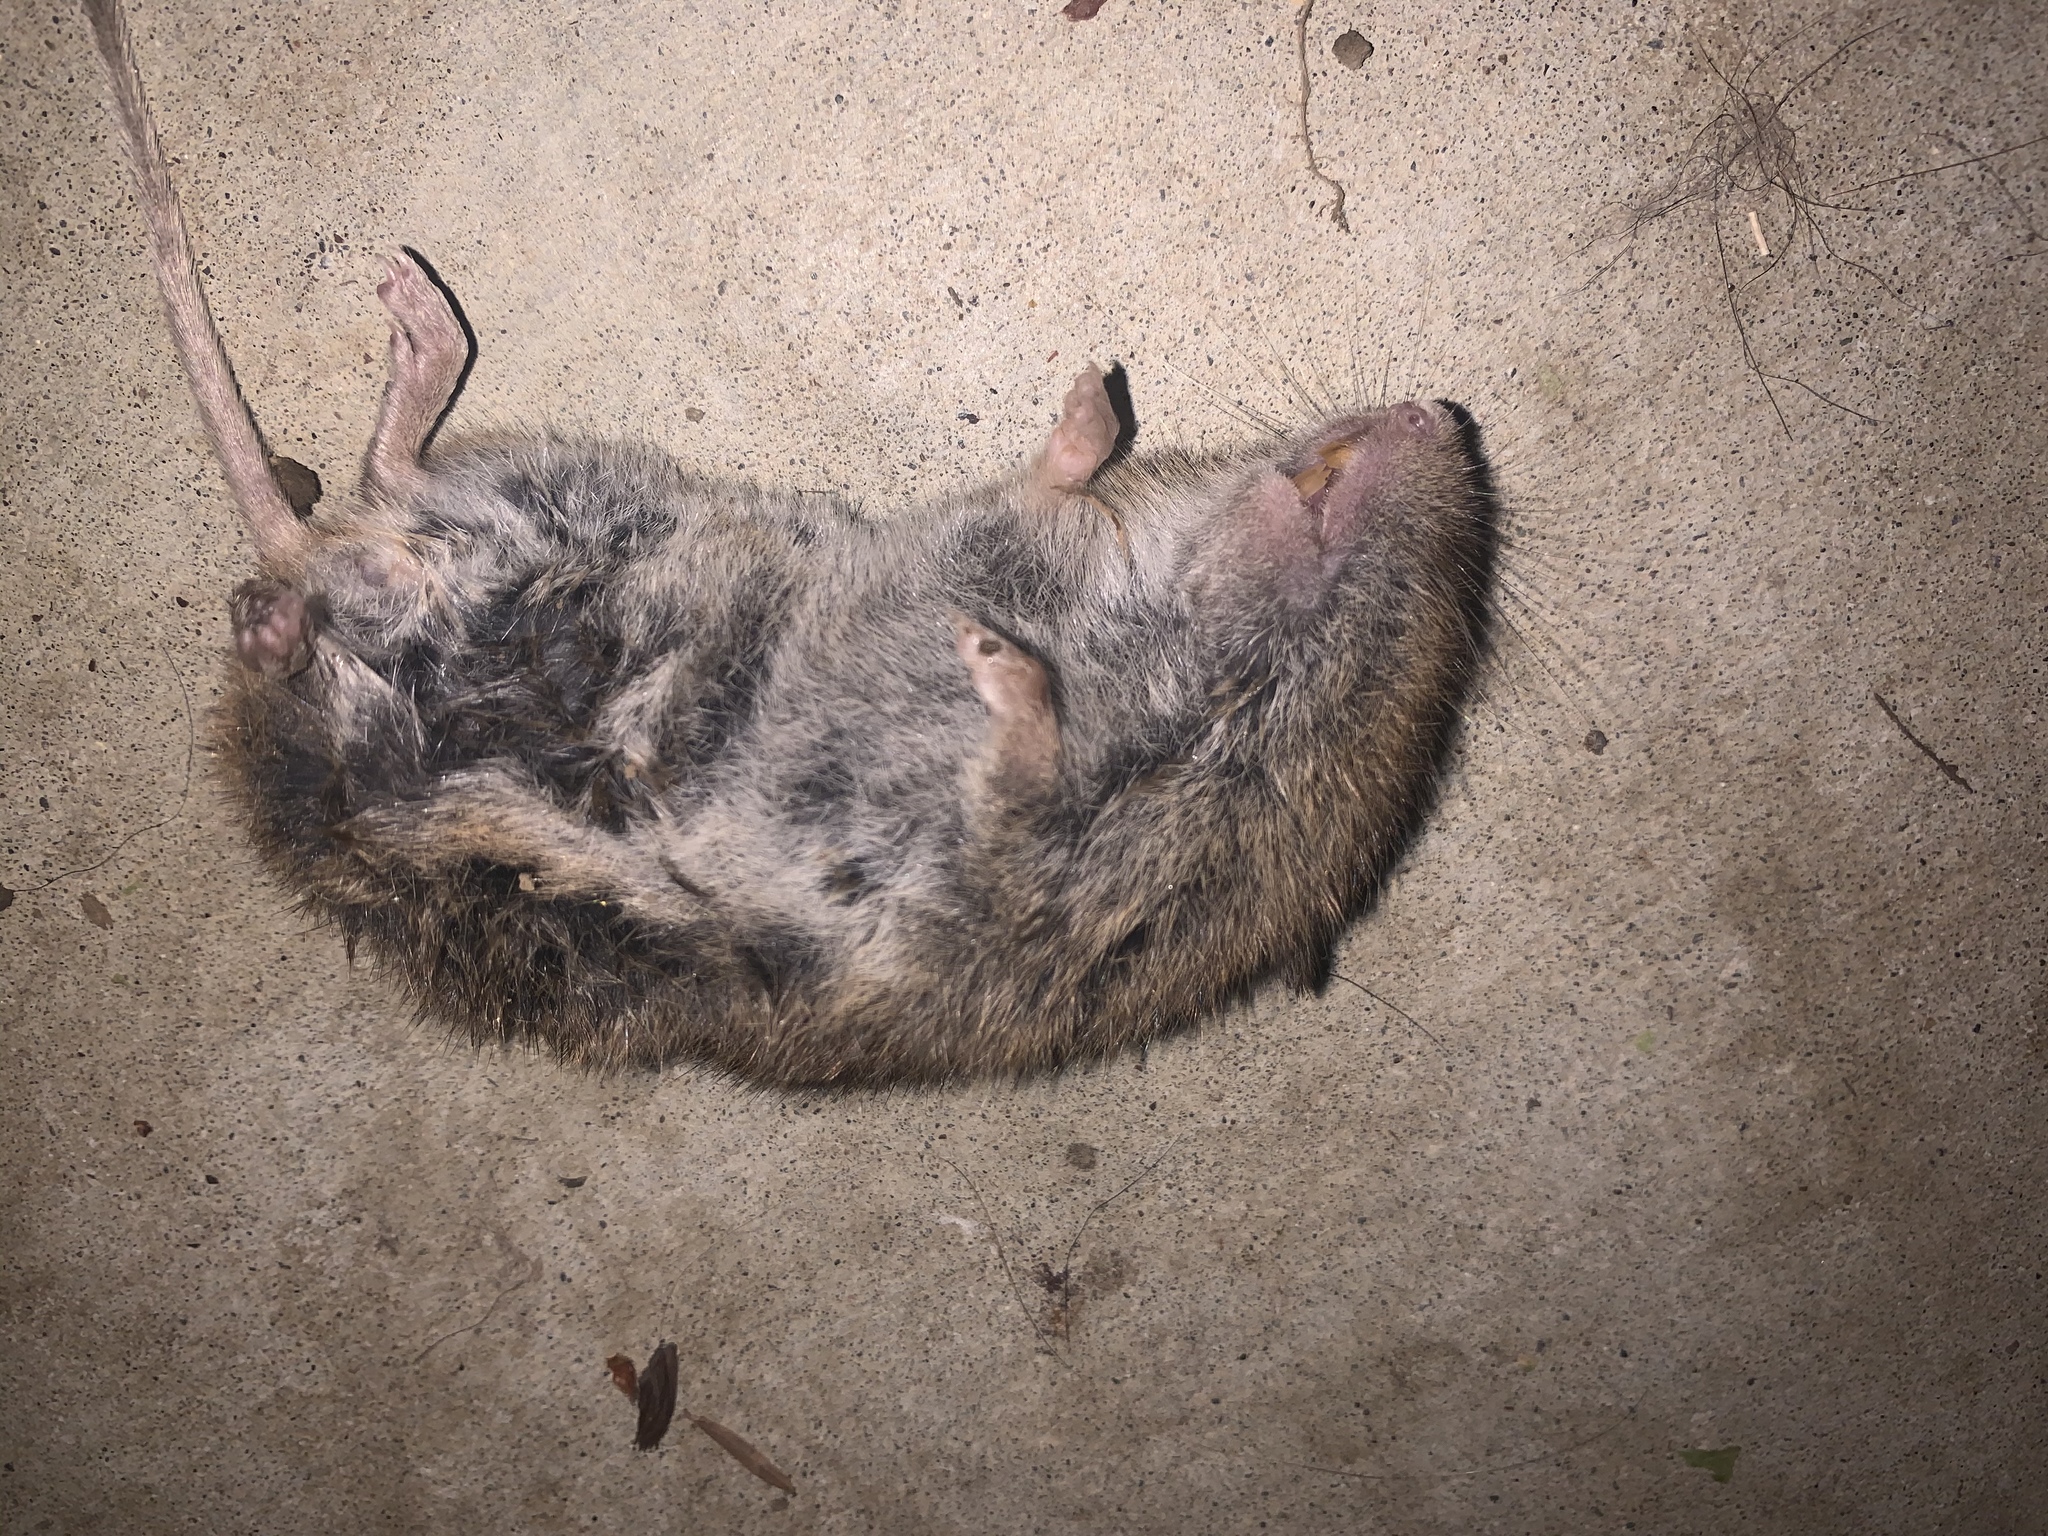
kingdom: Animalia
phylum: Chordata
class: Mammalia
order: Rodentia
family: Cricetidae
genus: Microtus
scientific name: Microtus californicus
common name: California vole
